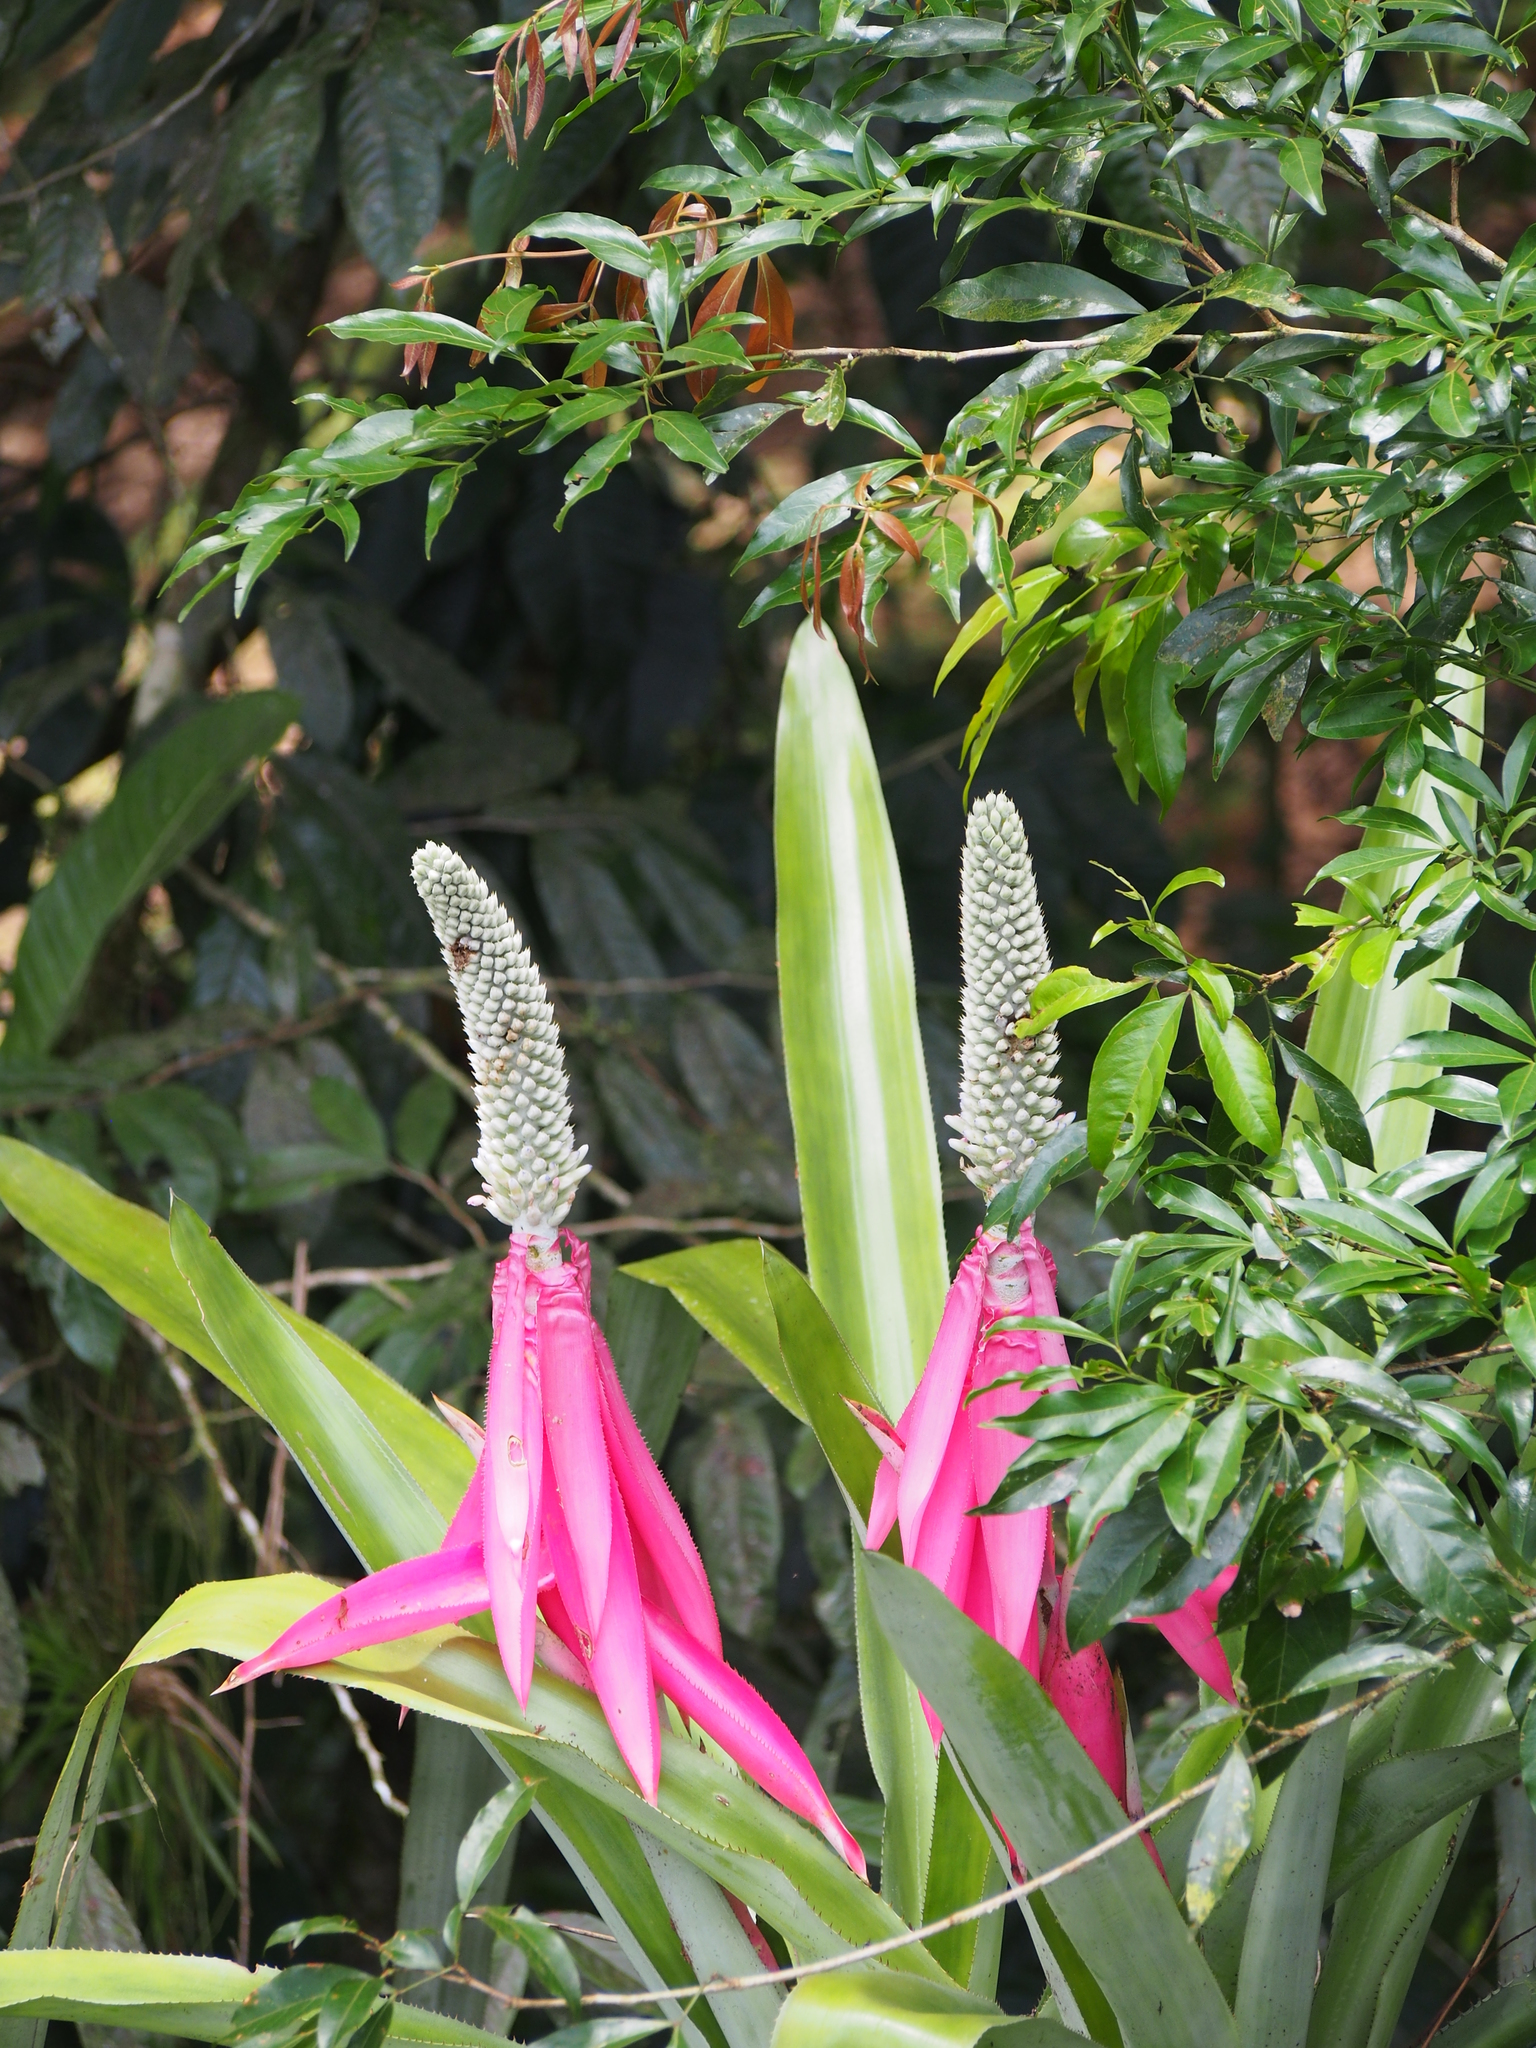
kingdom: Plantae
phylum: Tracheophyta
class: Liliopsida
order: Poales
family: Bromeliaceae
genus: Aechmea
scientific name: Aechmea mariae-reginae
